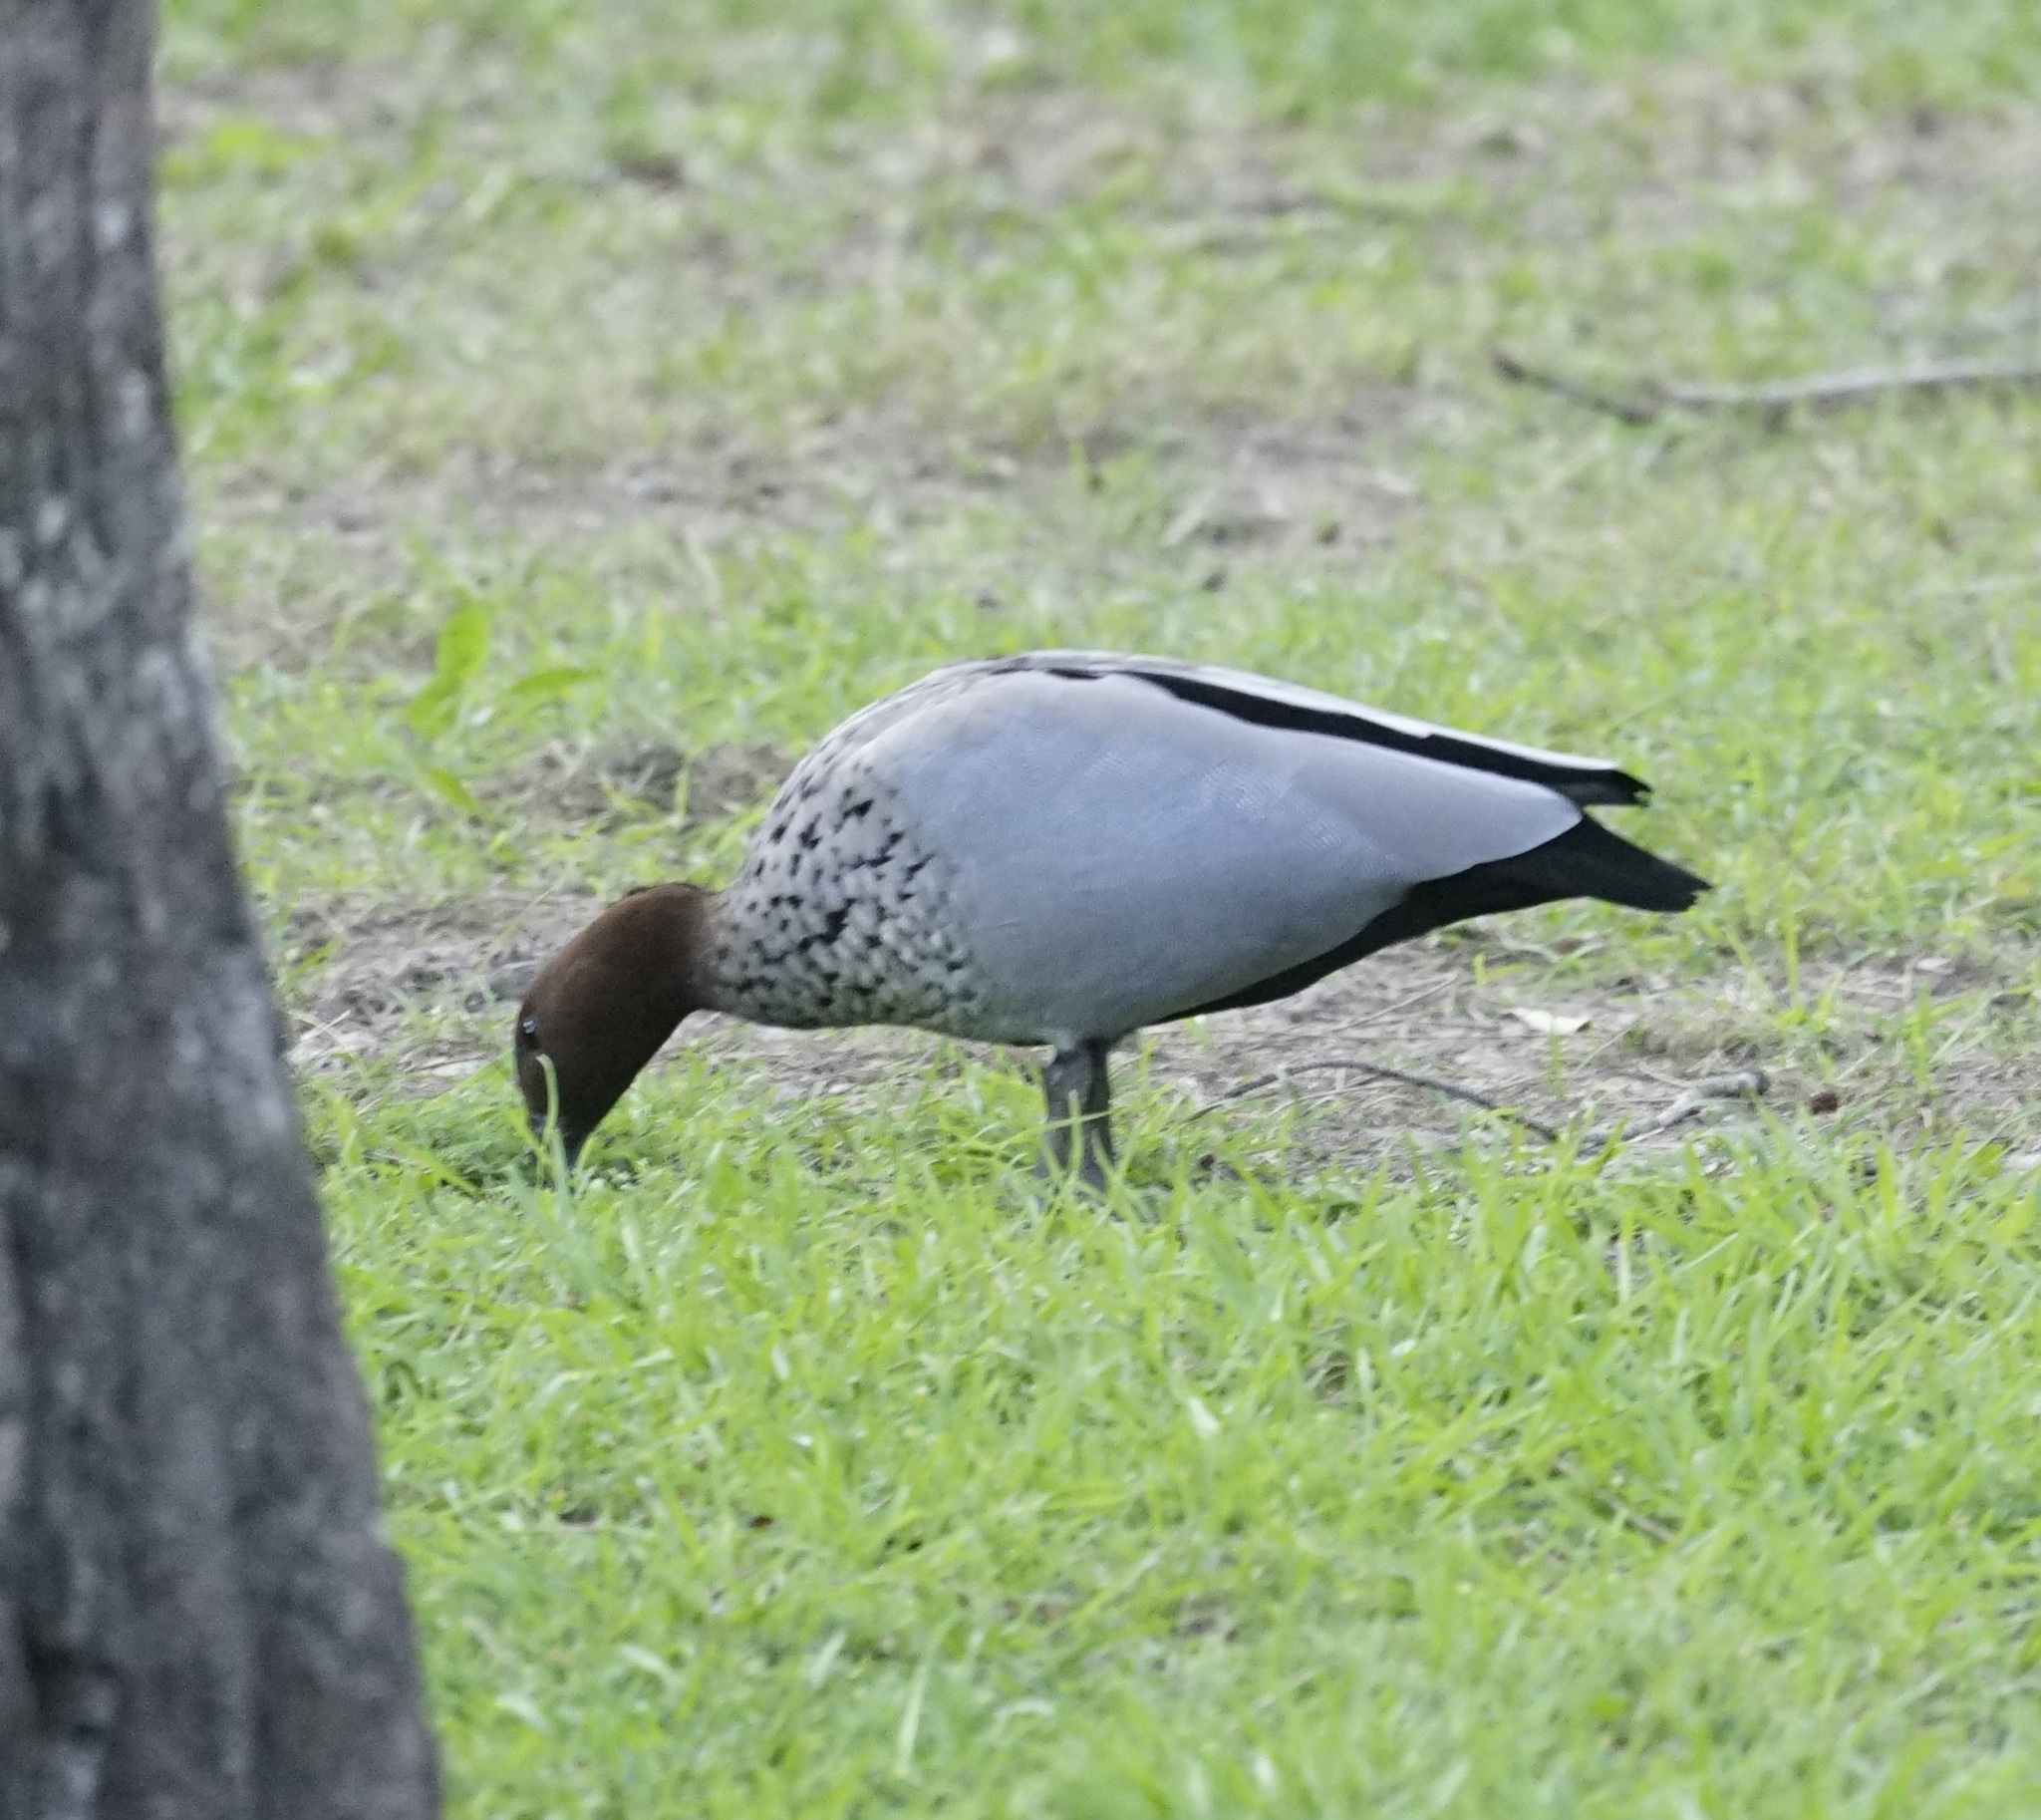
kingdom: Animalia
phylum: Chordata
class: Aves
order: Anseriformes
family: Anatidae
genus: Chenonetta
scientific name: Chenonetta jubata
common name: Maned duck
